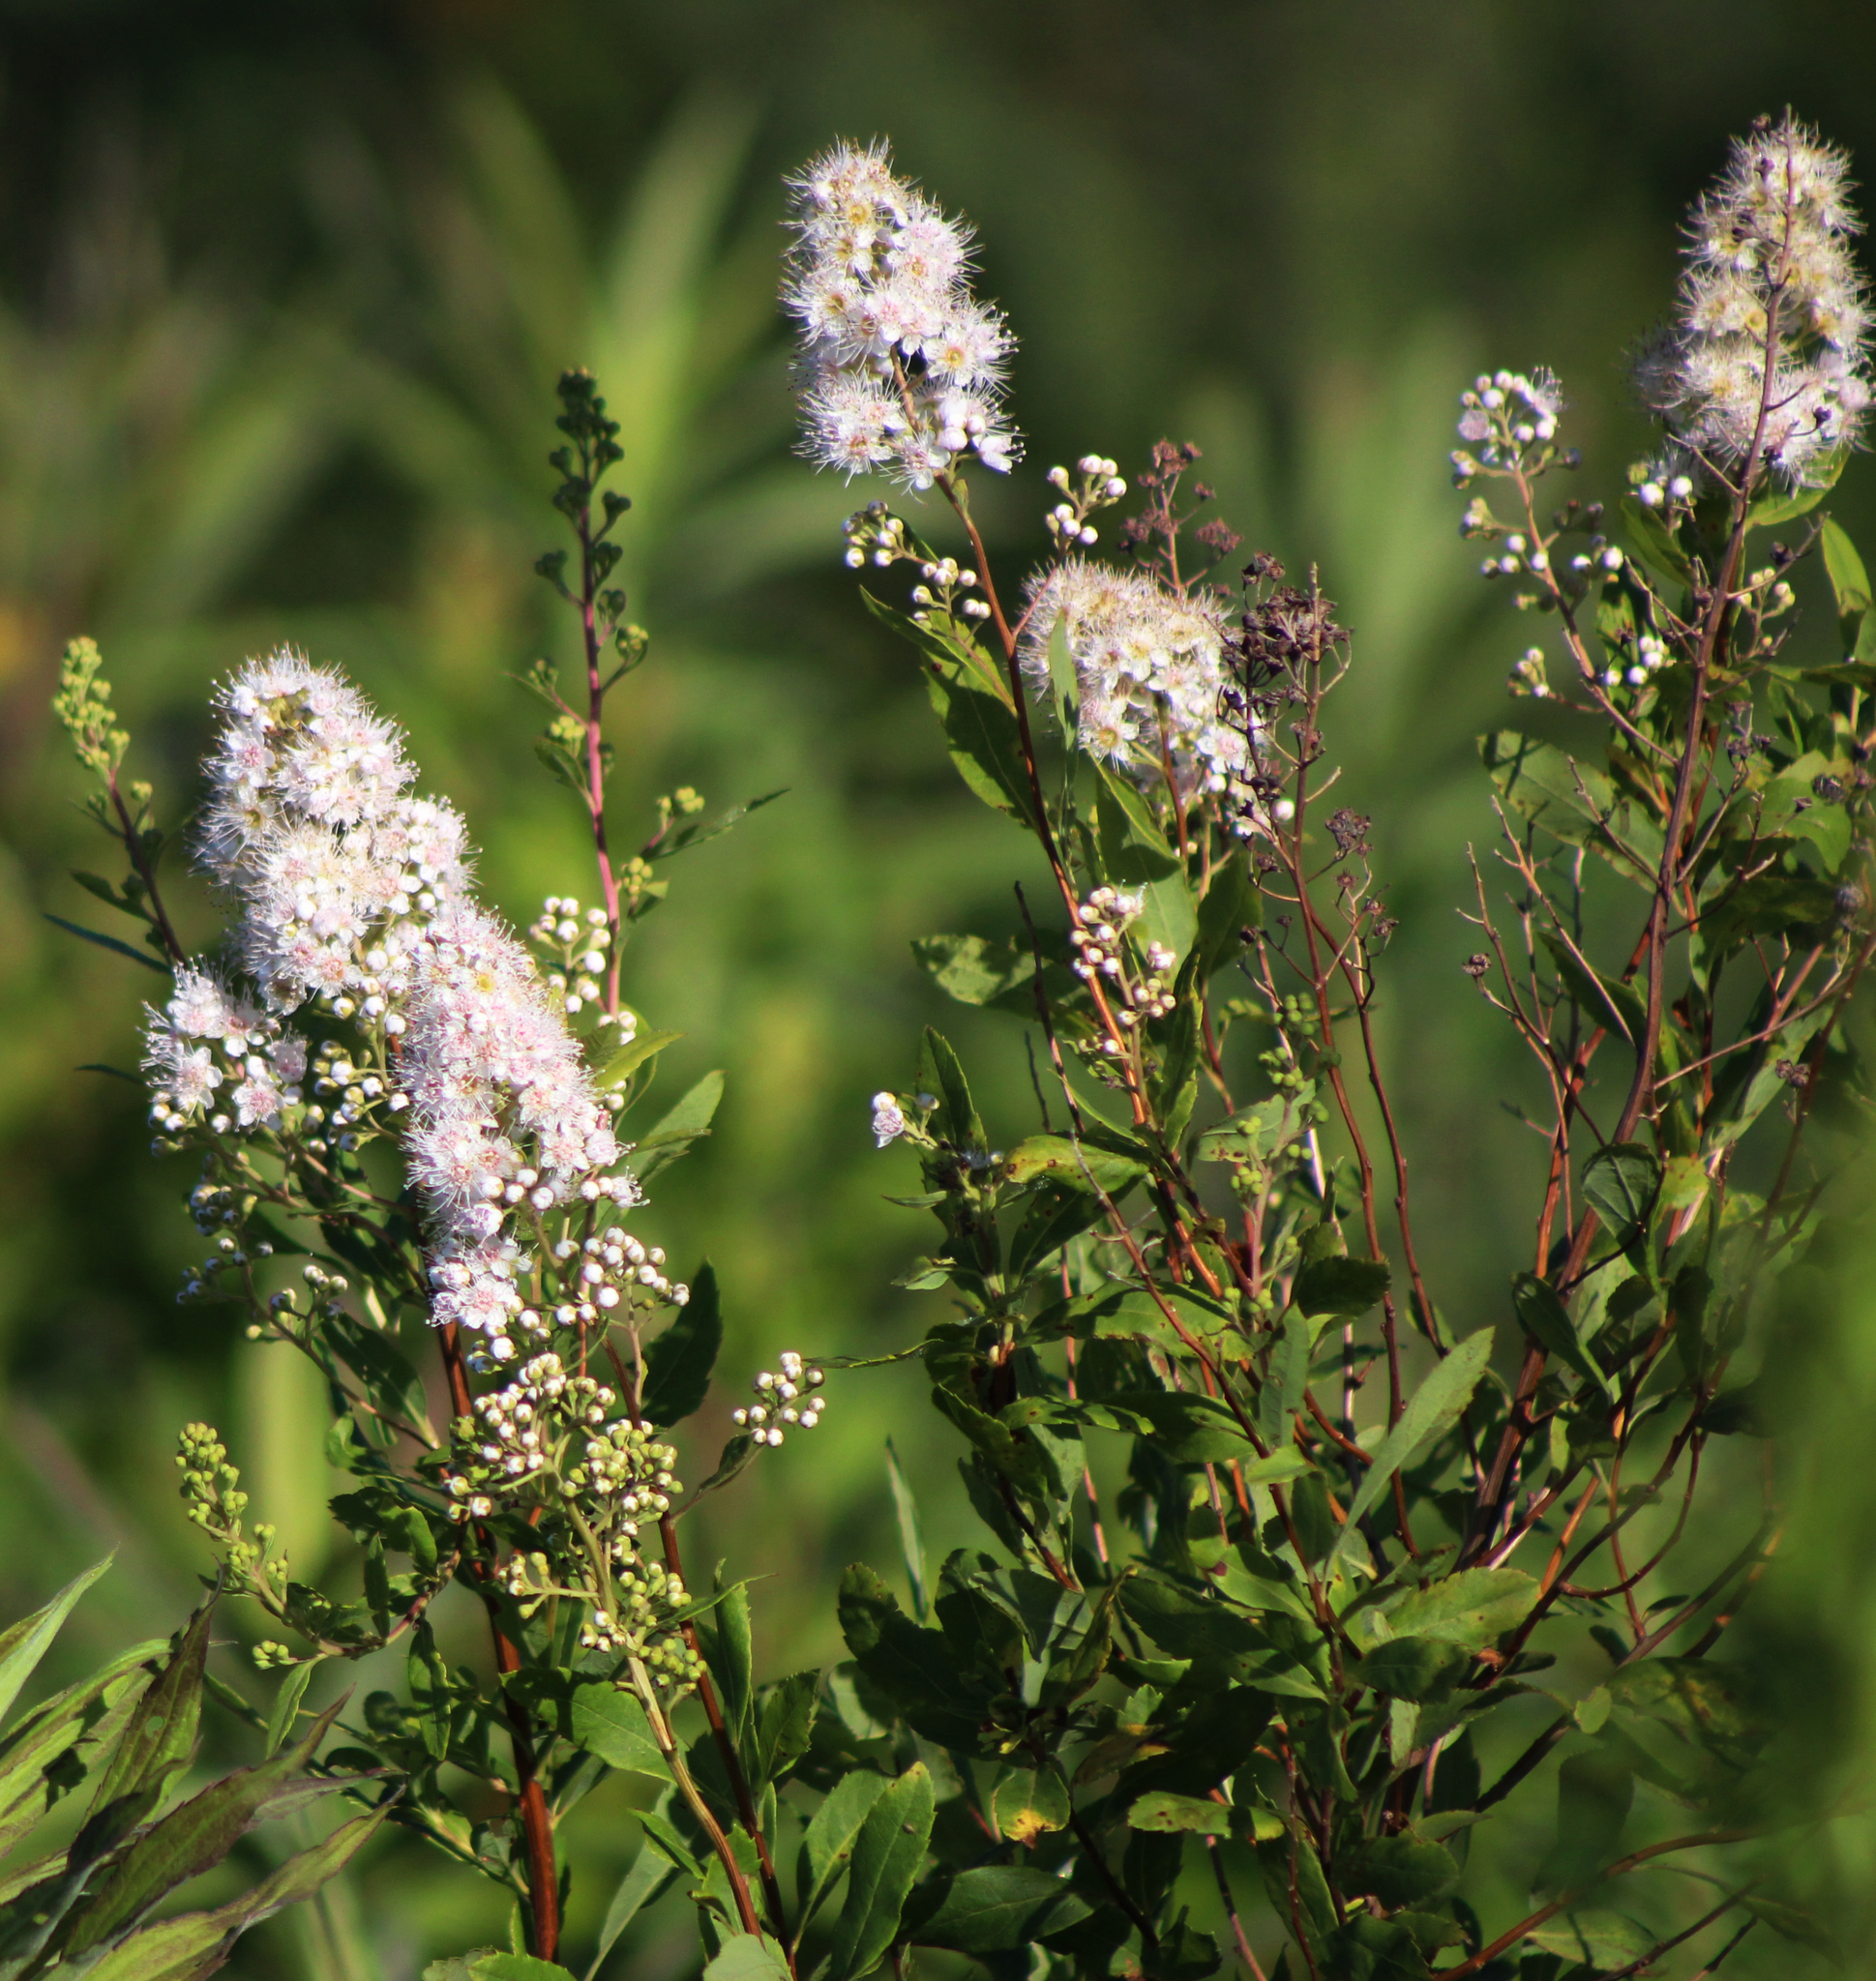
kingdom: Plantae
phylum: Tracheophyta
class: Magnoliopsida
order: Rosales
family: Rosaceae
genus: Spiraea
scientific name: Spiraea alba
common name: Pale bridewort
